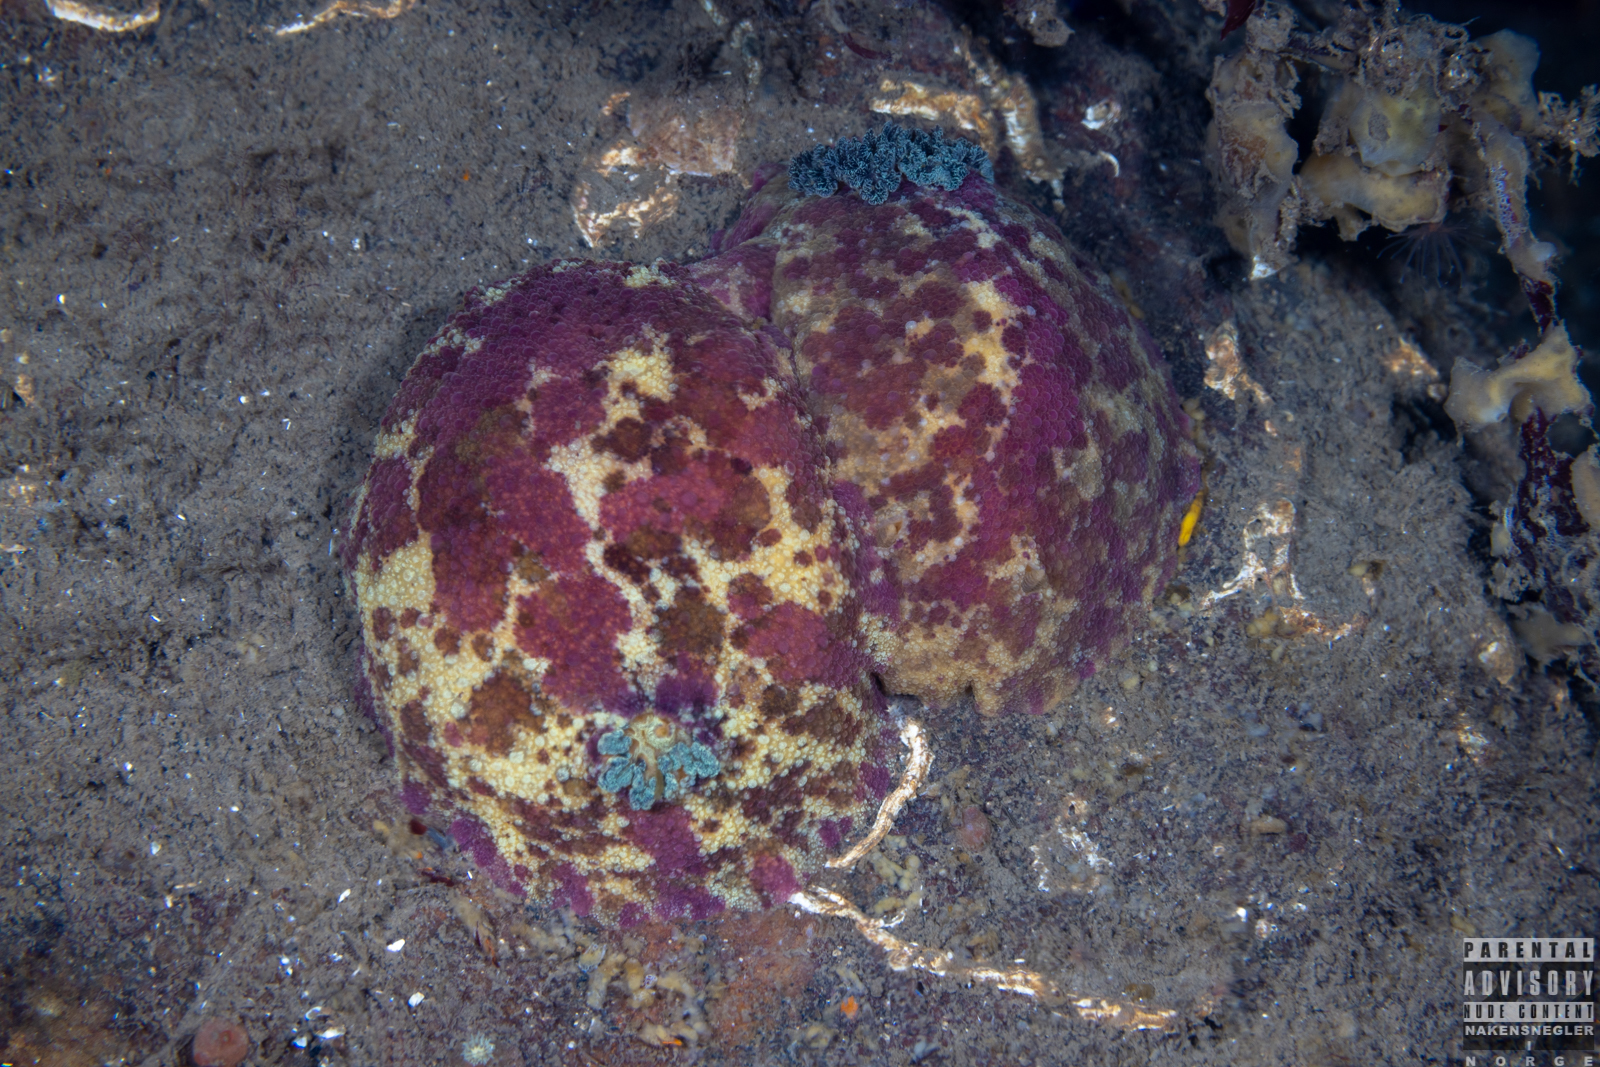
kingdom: Animalia
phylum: Mollusca
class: Gastropoda
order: Nudibranchia
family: Dorididae
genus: Doris
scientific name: Doris pseudoargus
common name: Sea lemon
